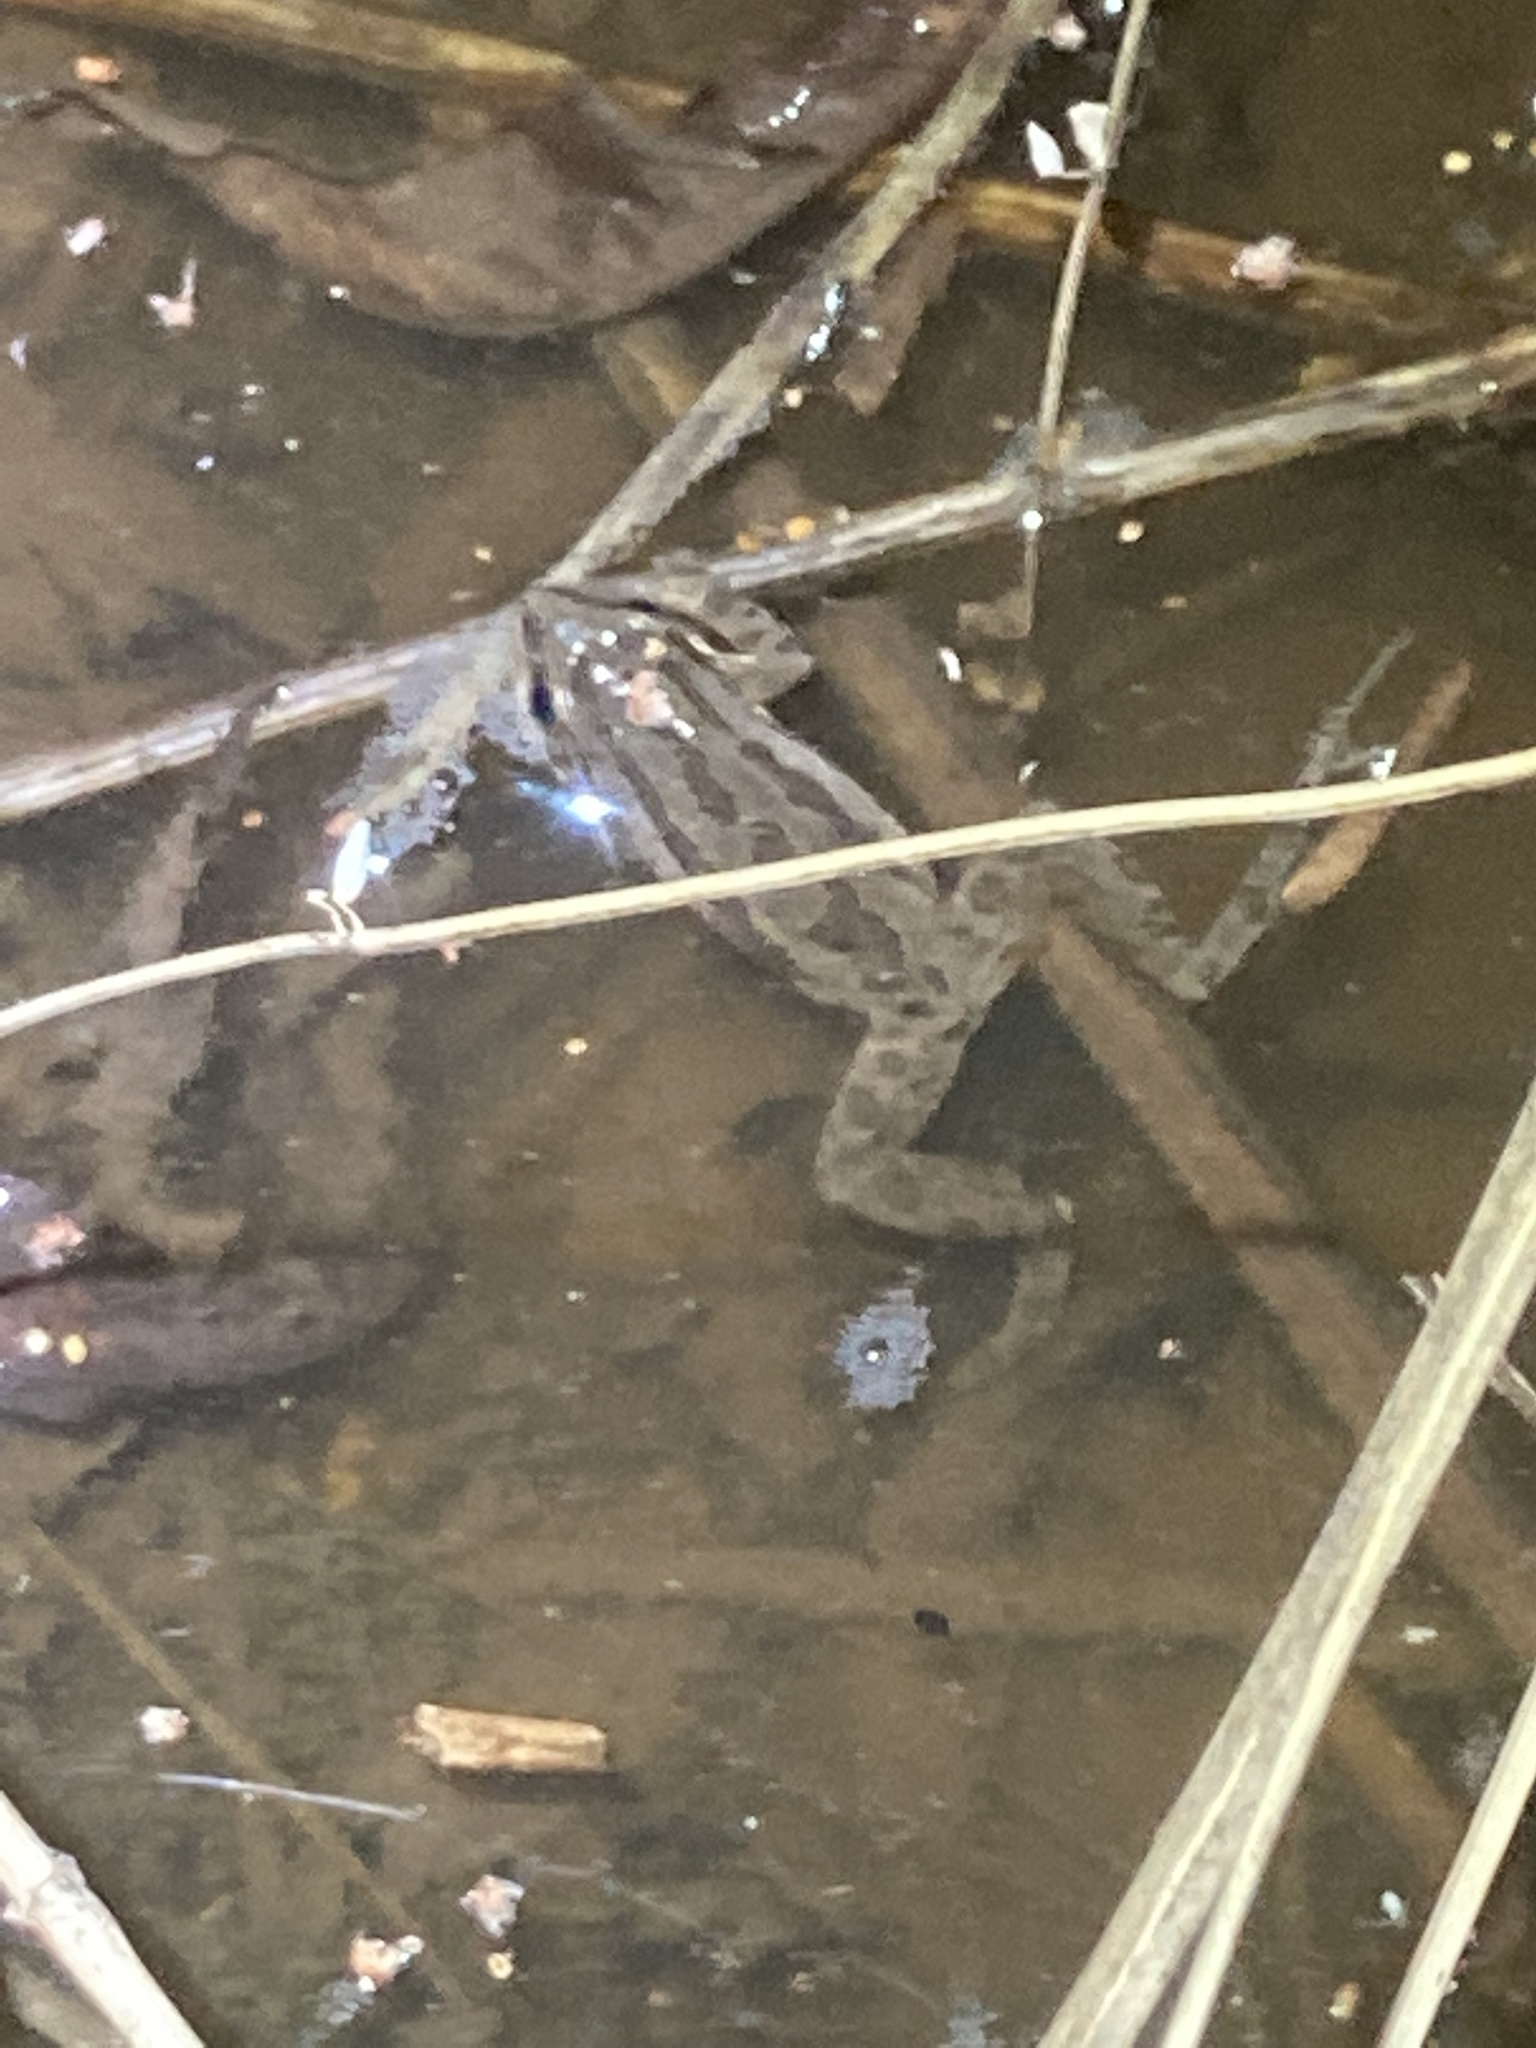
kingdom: Animalia
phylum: Chordata
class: Amphibia
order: Anura
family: Hylidae
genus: Pseudacris
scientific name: Pseudacris maculata
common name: Boreal chorus frog
